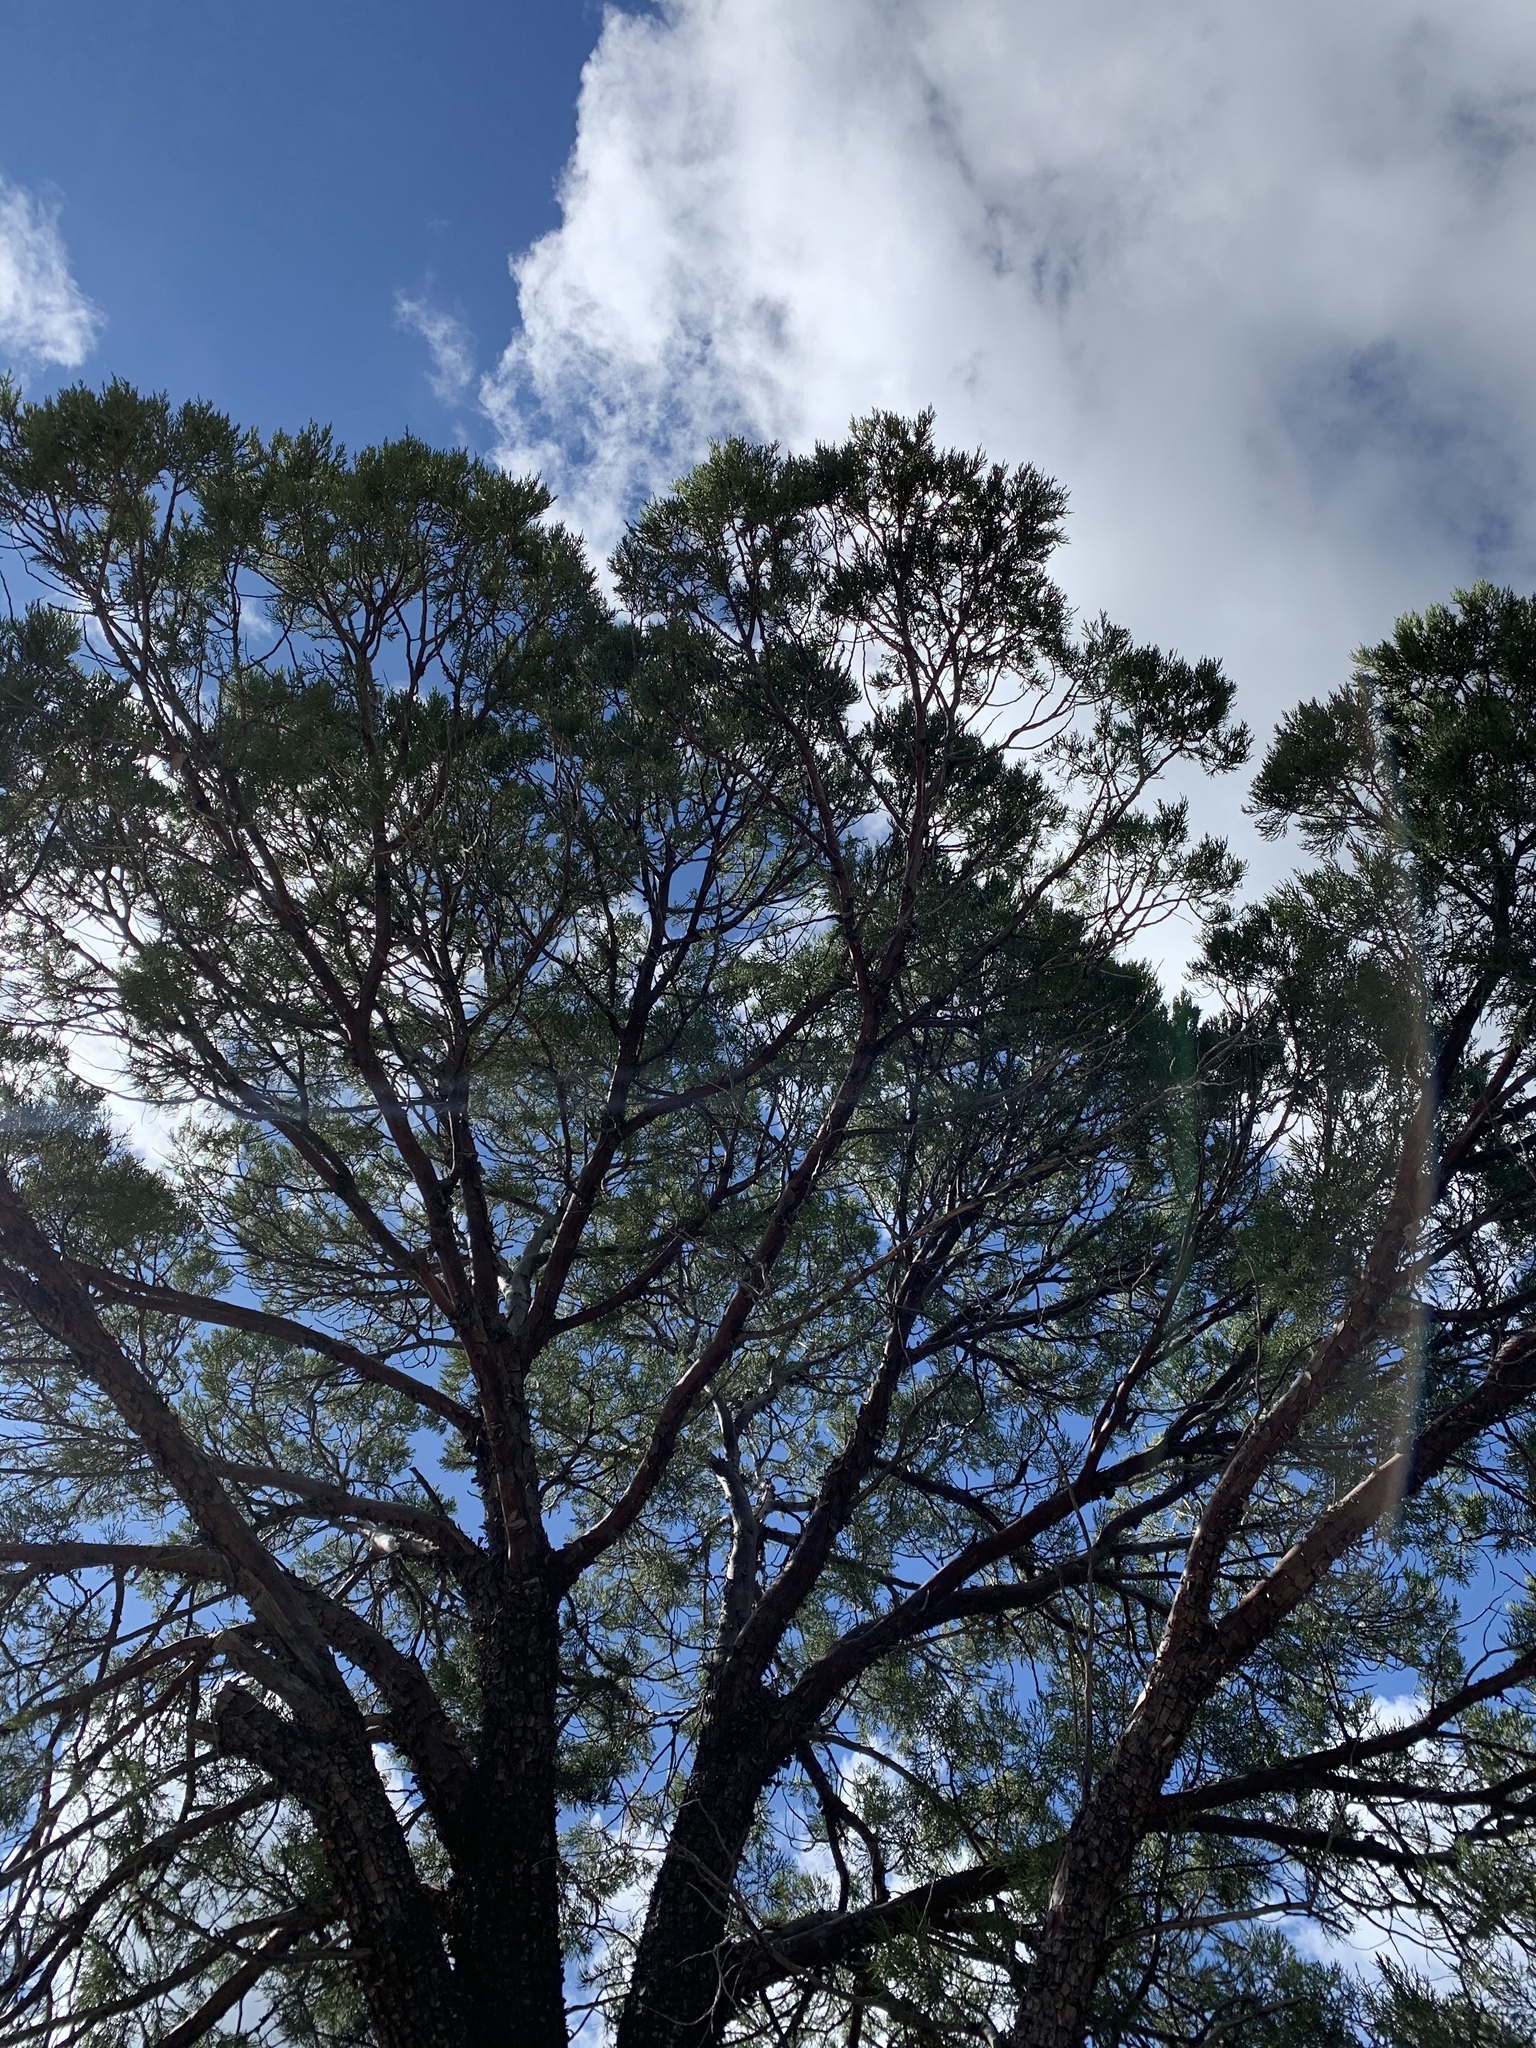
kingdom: Plantae
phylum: Tracheophyta
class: Pinopsida
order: Pinales
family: Cupressaceae
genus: Juniperus
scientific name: Juniperus deppeana
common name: Alligator juniper
